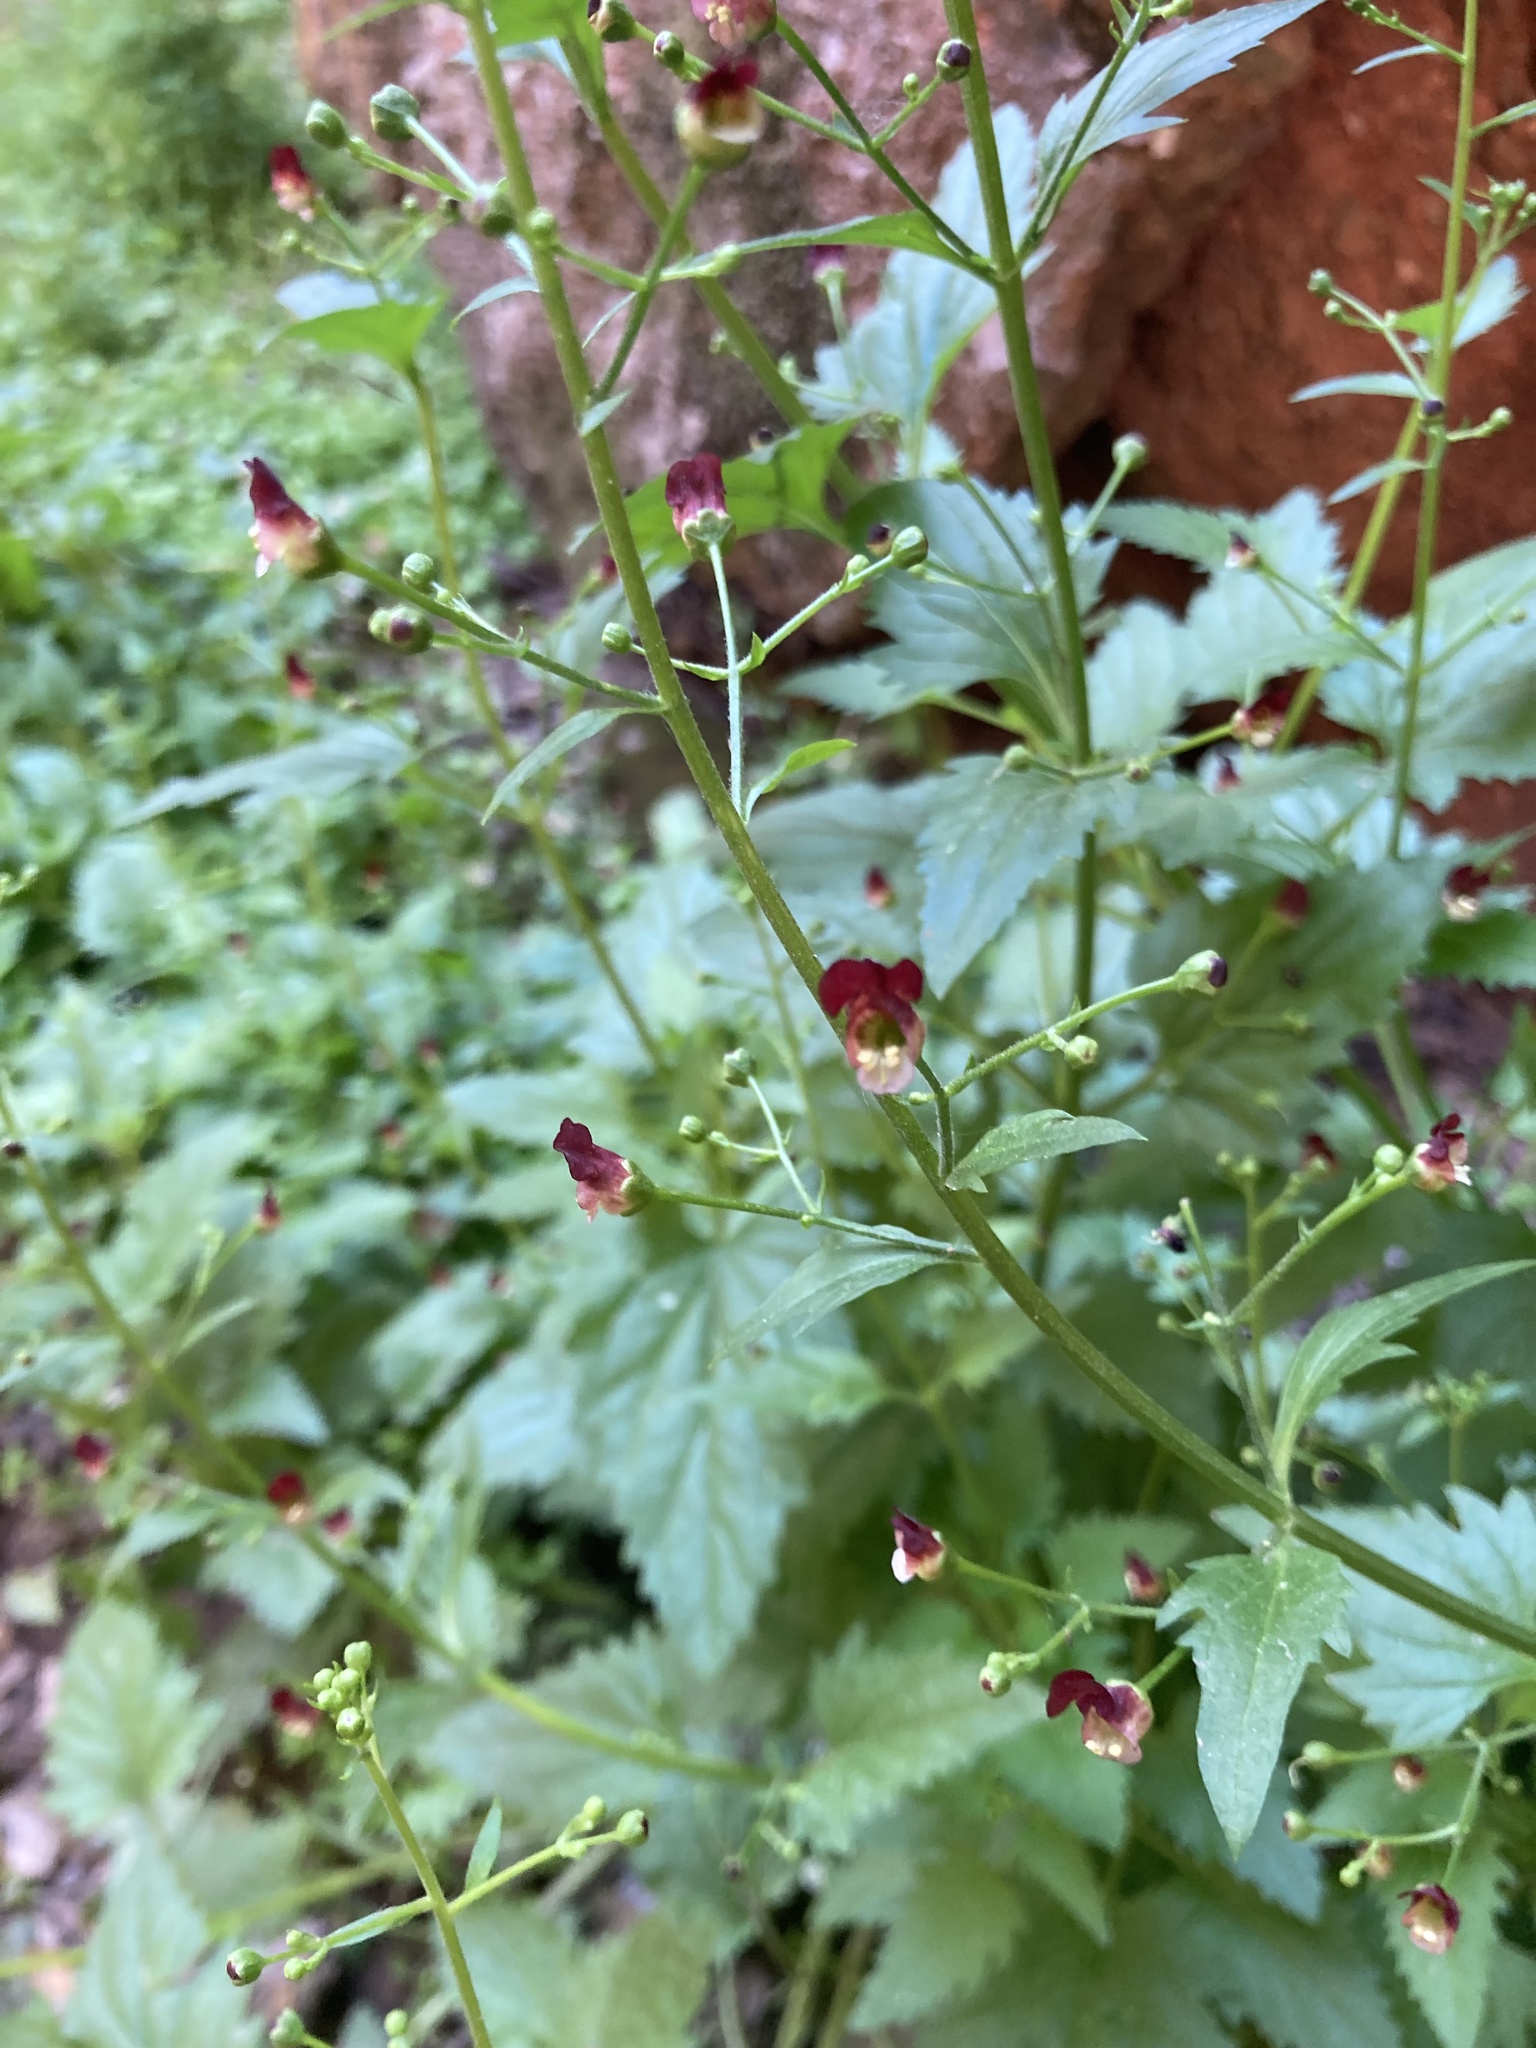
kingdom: Plantae
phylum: Tracheophyta
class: Magnoliopsida
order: Lamiales
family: Scrophulariaceae
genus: Scrophularia
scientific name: Scrophularia californica
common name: California figwort
